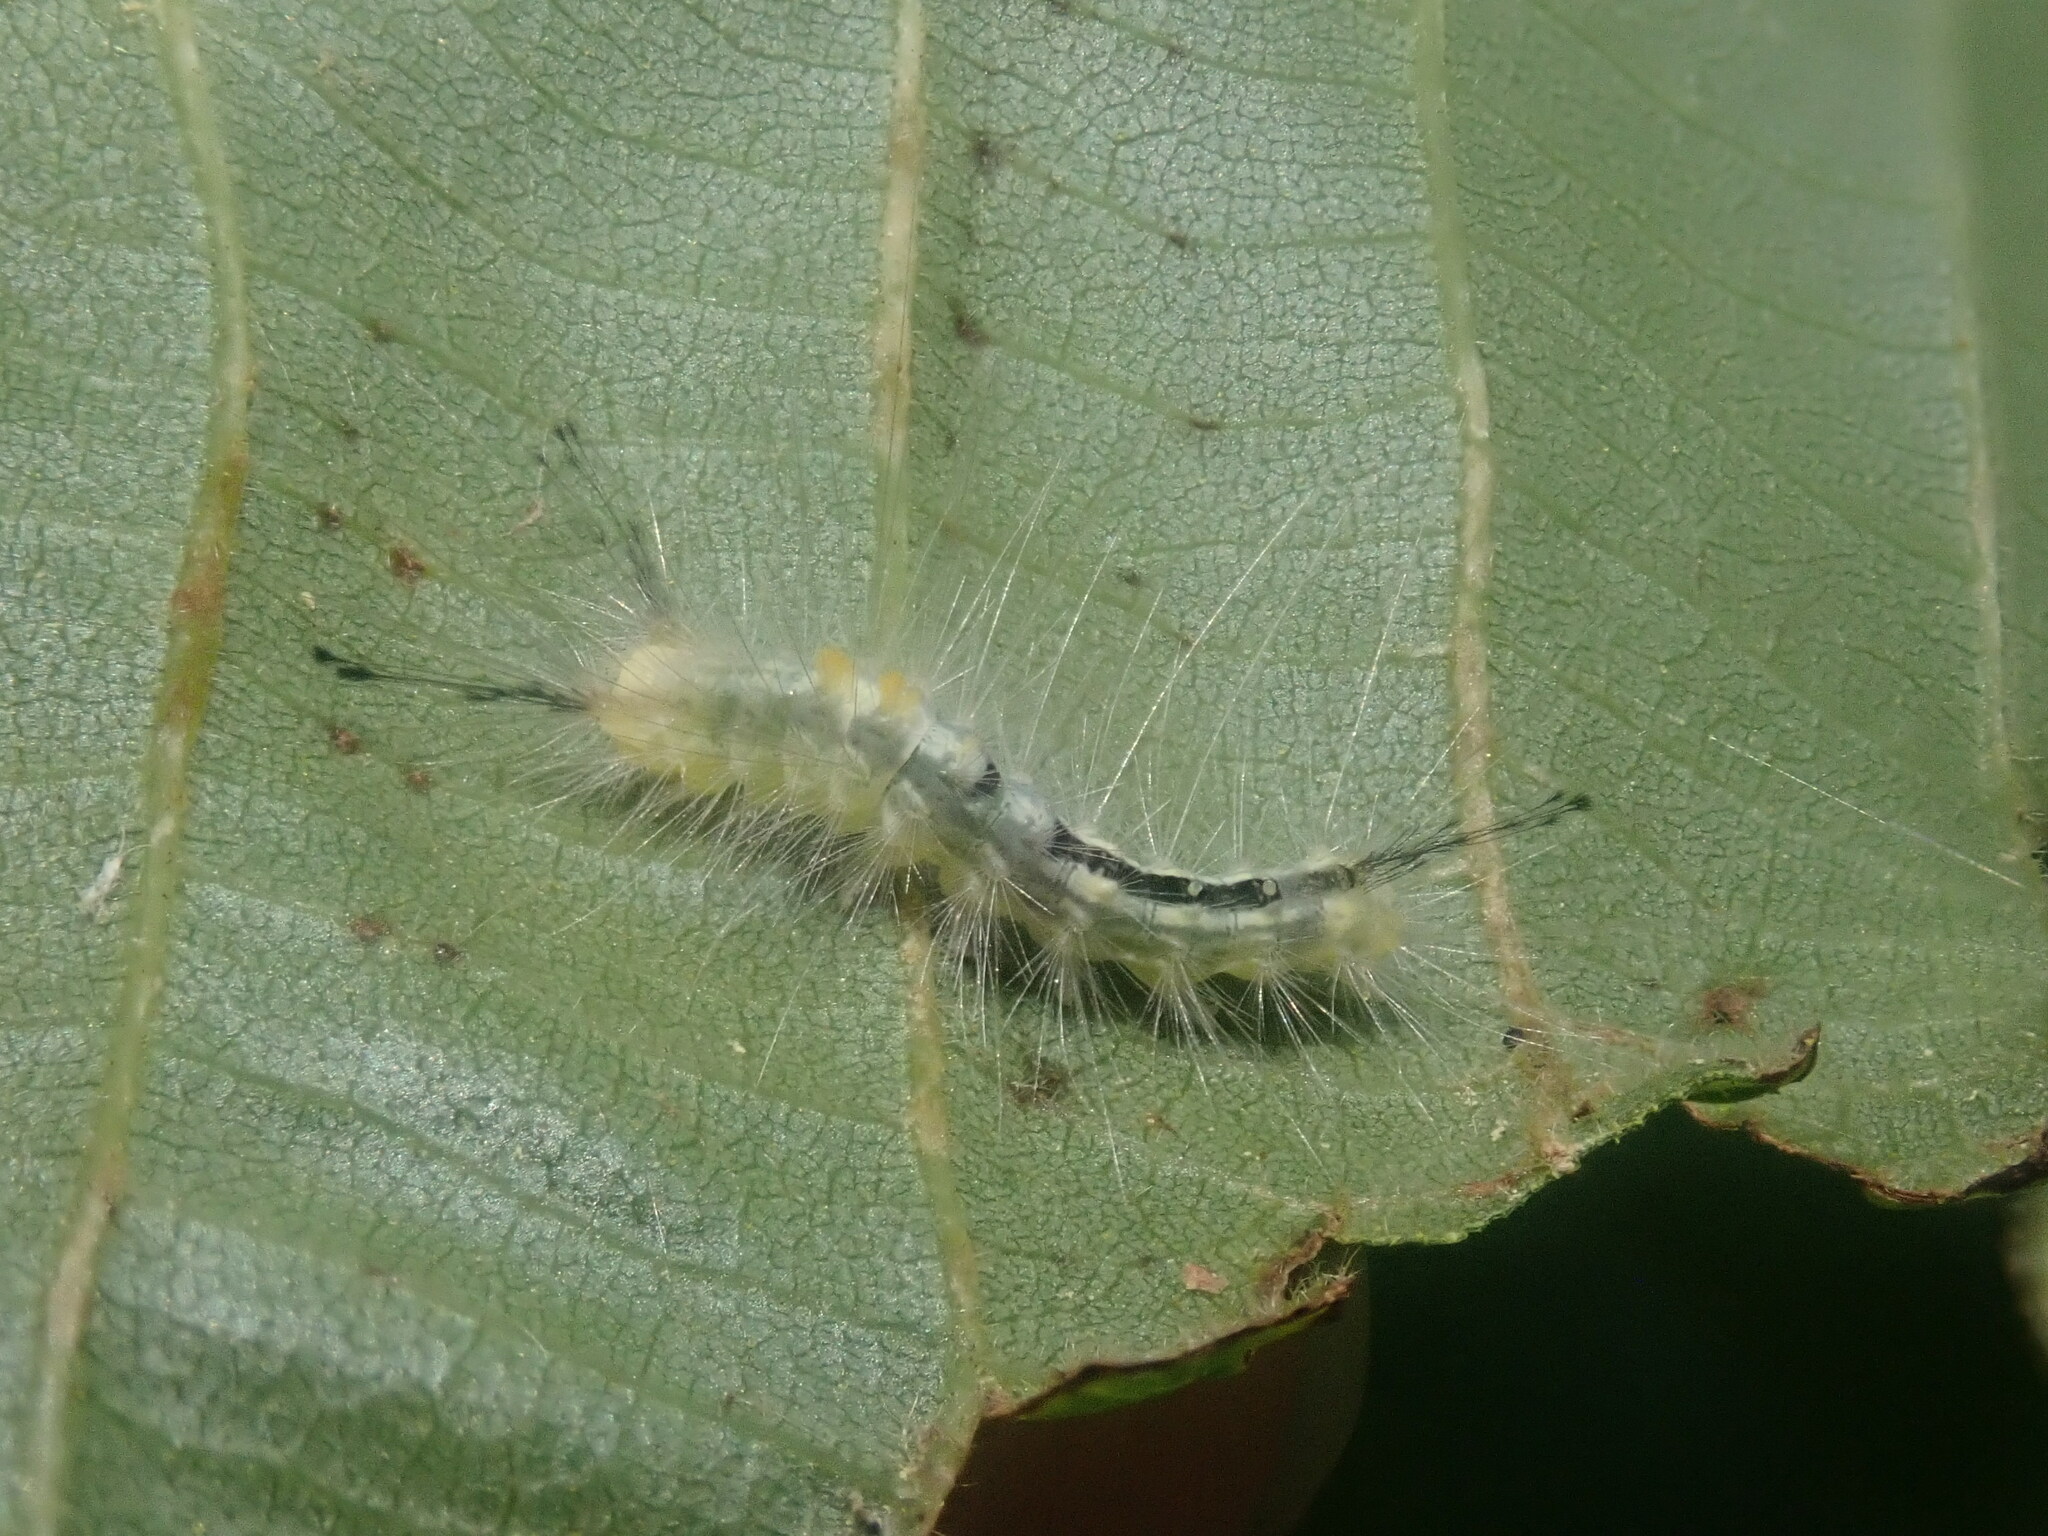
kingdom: Animalia
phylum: Arthropoda
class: Insecta
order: Lepidoptera
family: Erebidae
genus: Orgyia
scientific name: Orgyia definita
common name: Definite tussock moth
